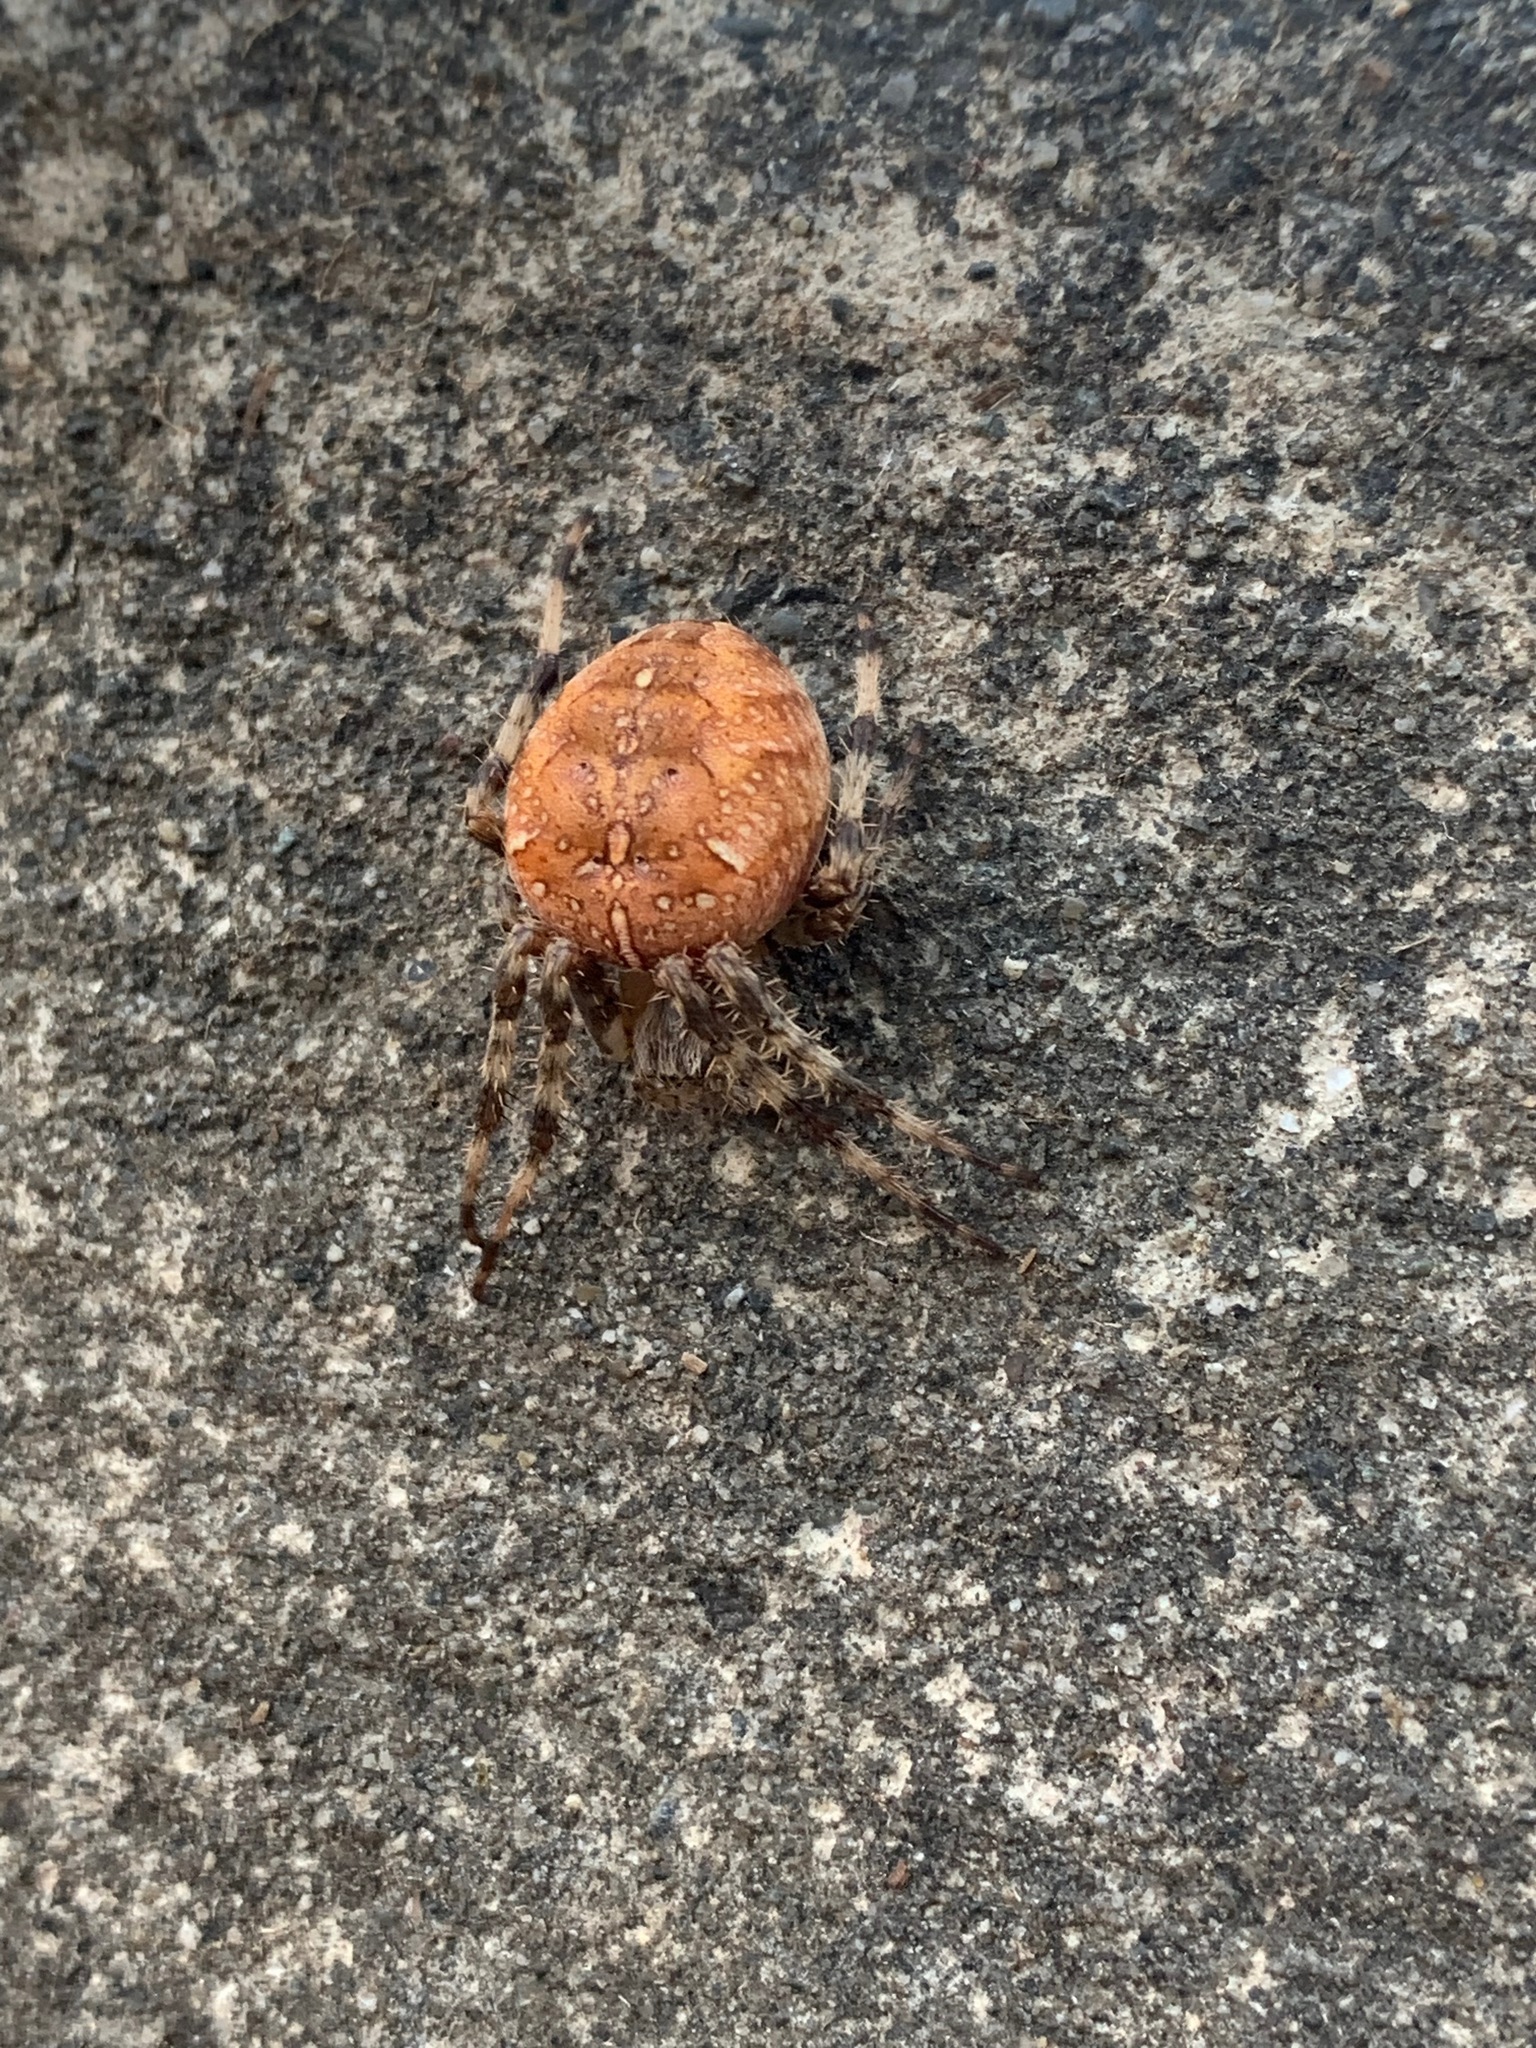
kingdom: Animalia
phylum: Arthropoda
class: Arachnida
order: Araneae
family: Araneidae
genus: Araneus
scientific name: Araneus diadematus
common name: Cross orbweaver
